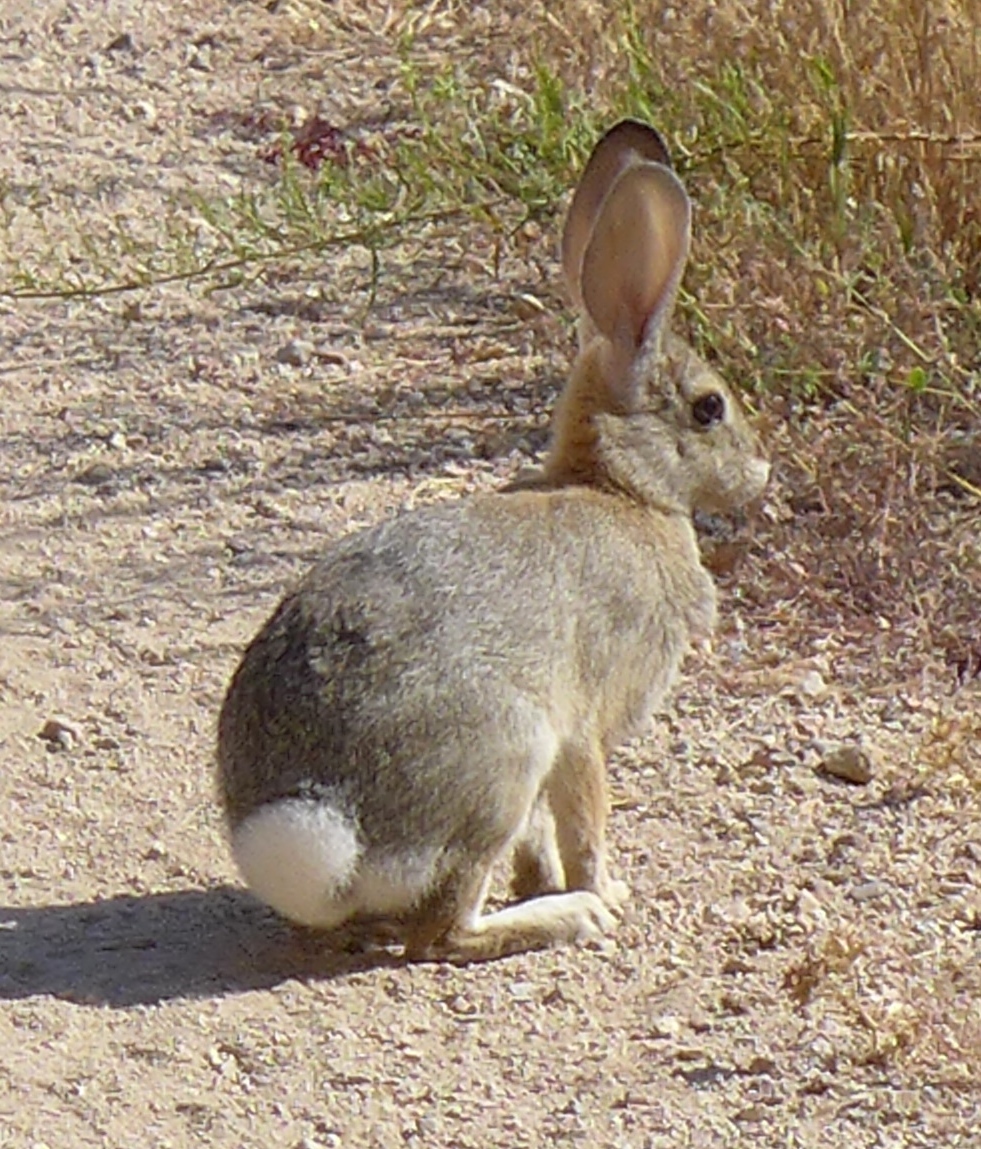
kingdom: Animalia
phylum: Chordata
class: Mammalia
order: Lagomorpha
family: Leporidae
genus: Sylvilagus
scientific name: Sylvilagus audubonii
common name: Desert cottontail
